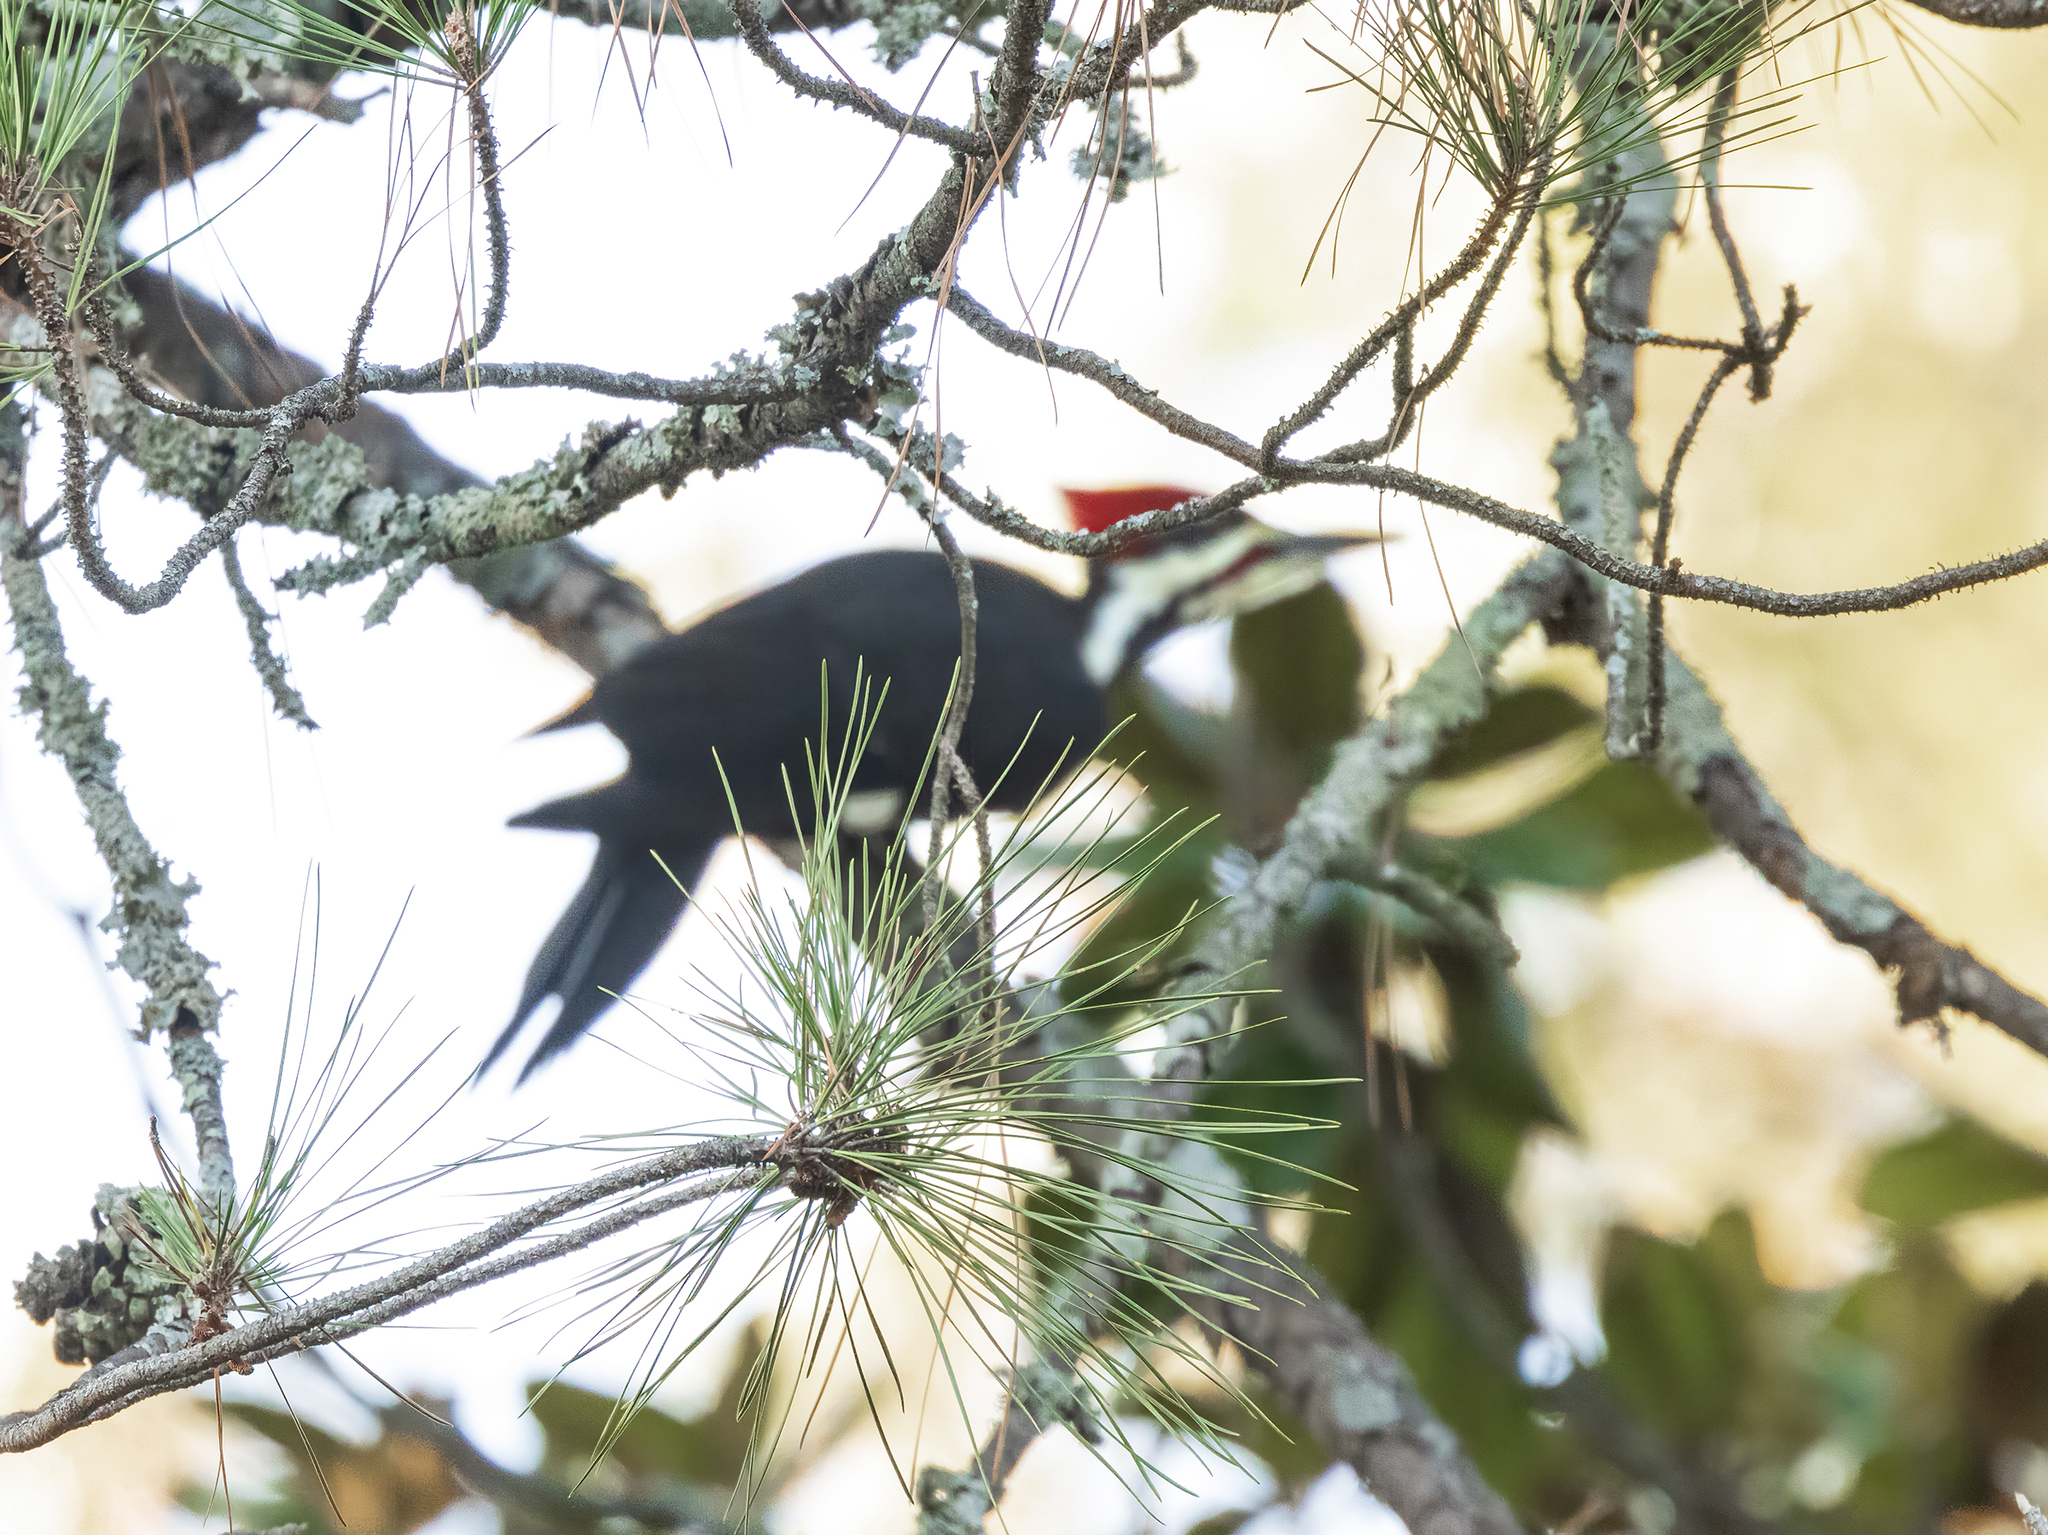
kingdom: Animalia
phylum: Chordata
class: Aves
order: Piciformes
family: Picidae
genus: Dryocopus
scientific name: Dryocopus pileatus
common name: Pileated woodpecker
